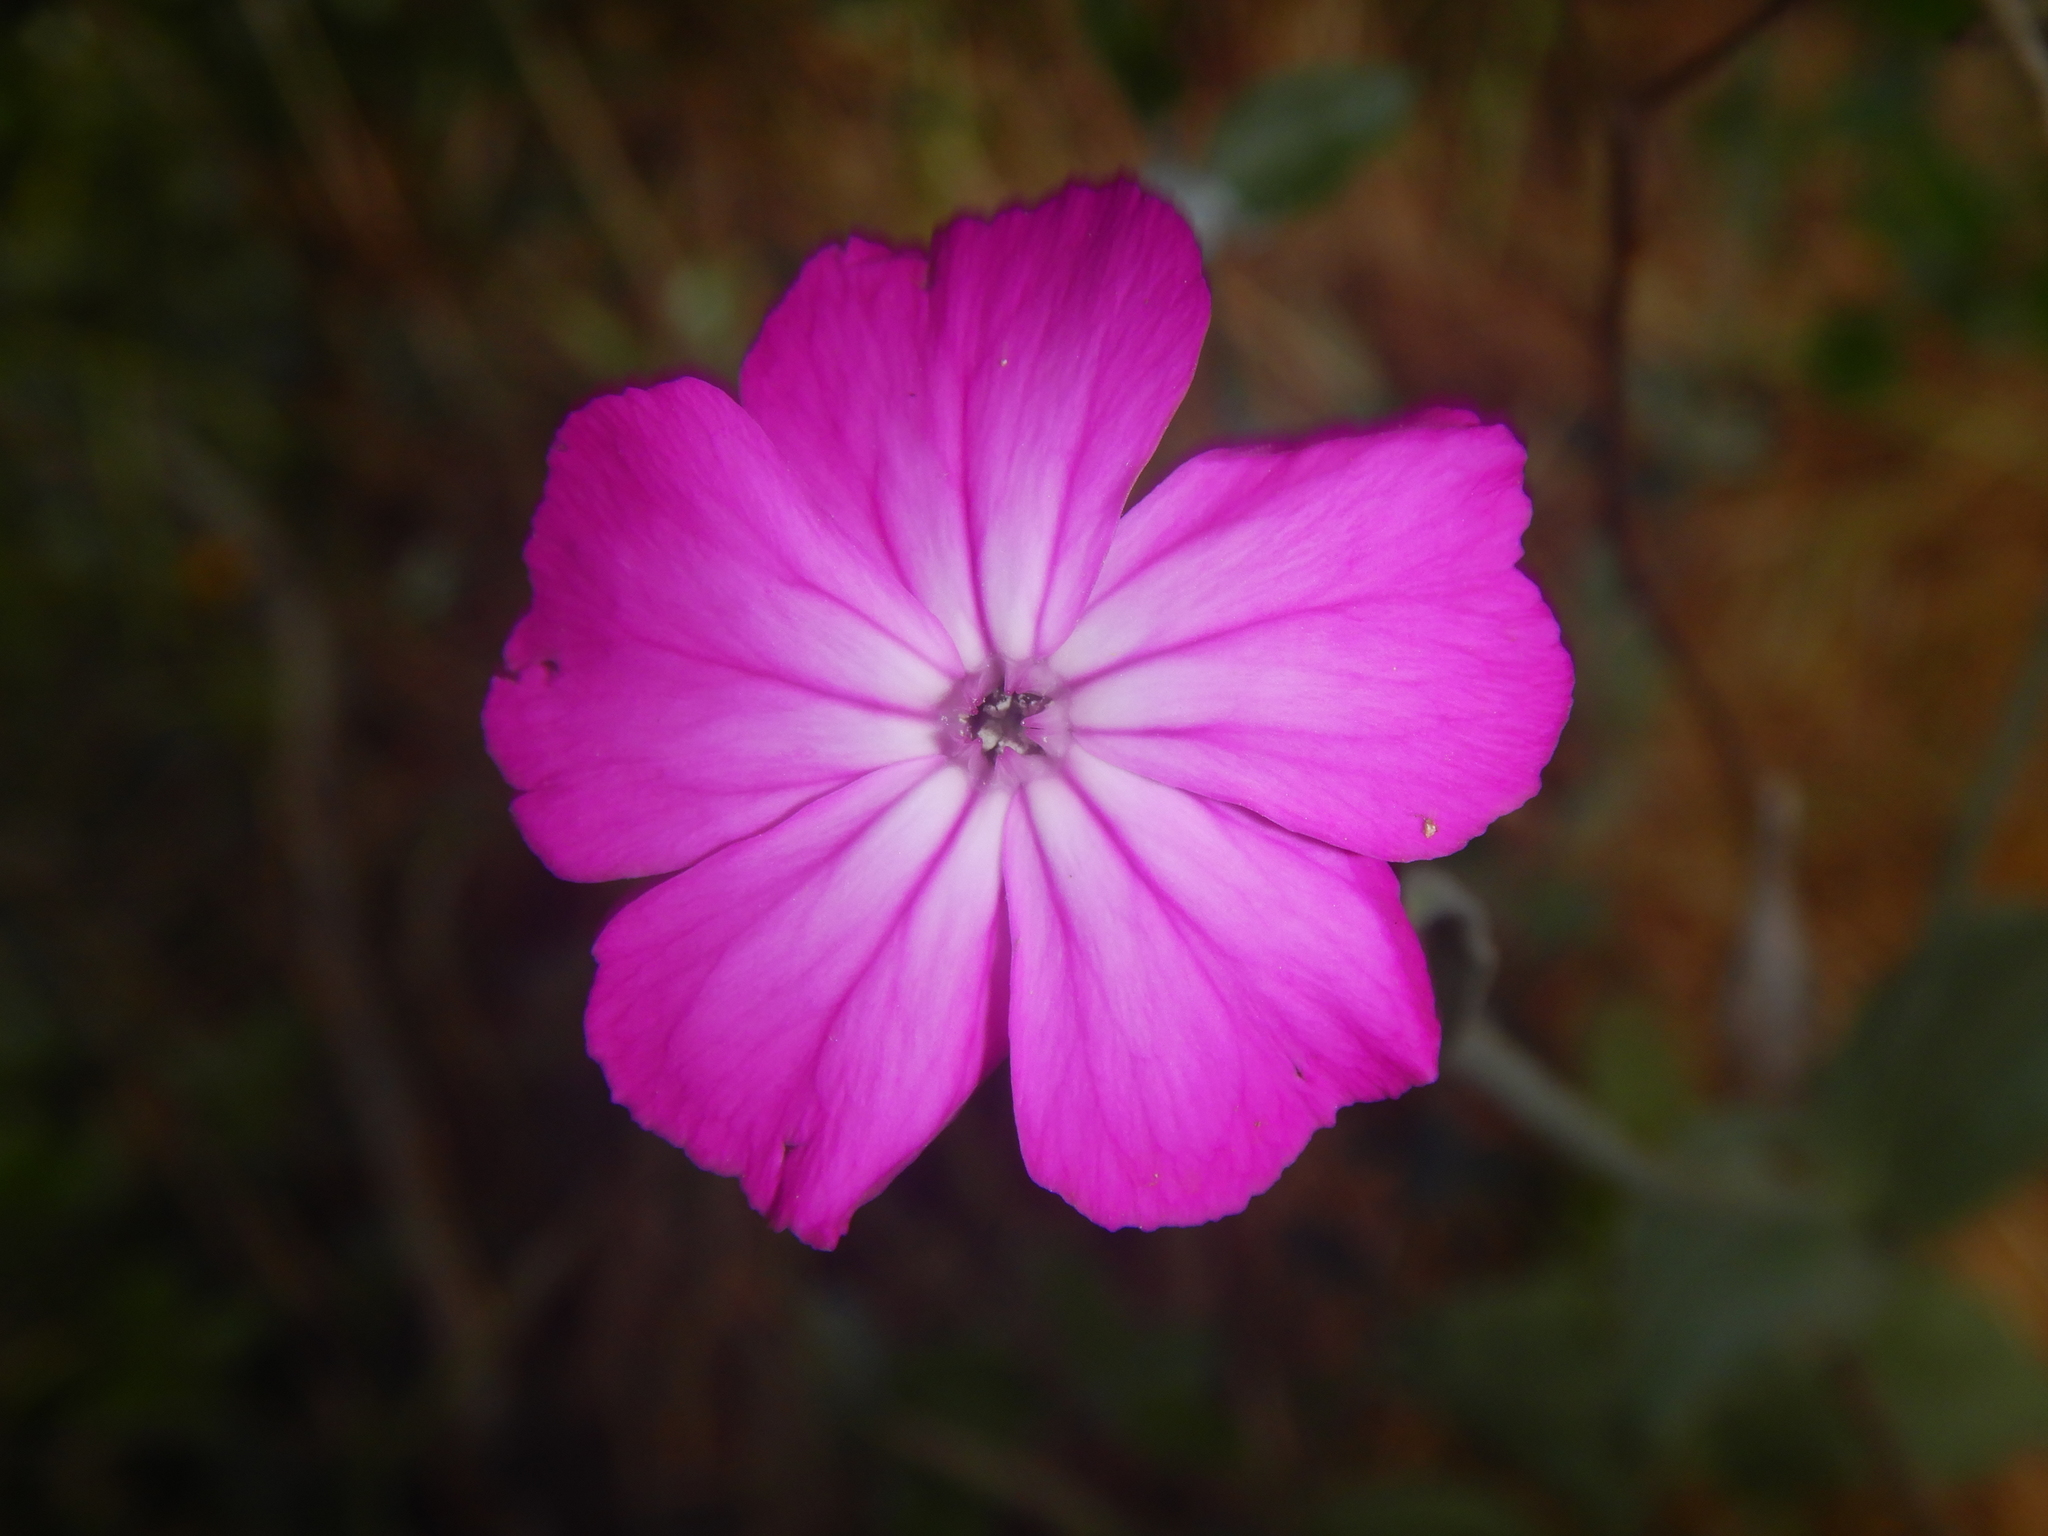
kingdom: Plantae
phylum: Tracheophyta
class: Magnoliopsida
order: Caryophyllales
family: Caryophyllaceae
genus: Silene
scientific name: Silene coronaria
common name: Rose campion
